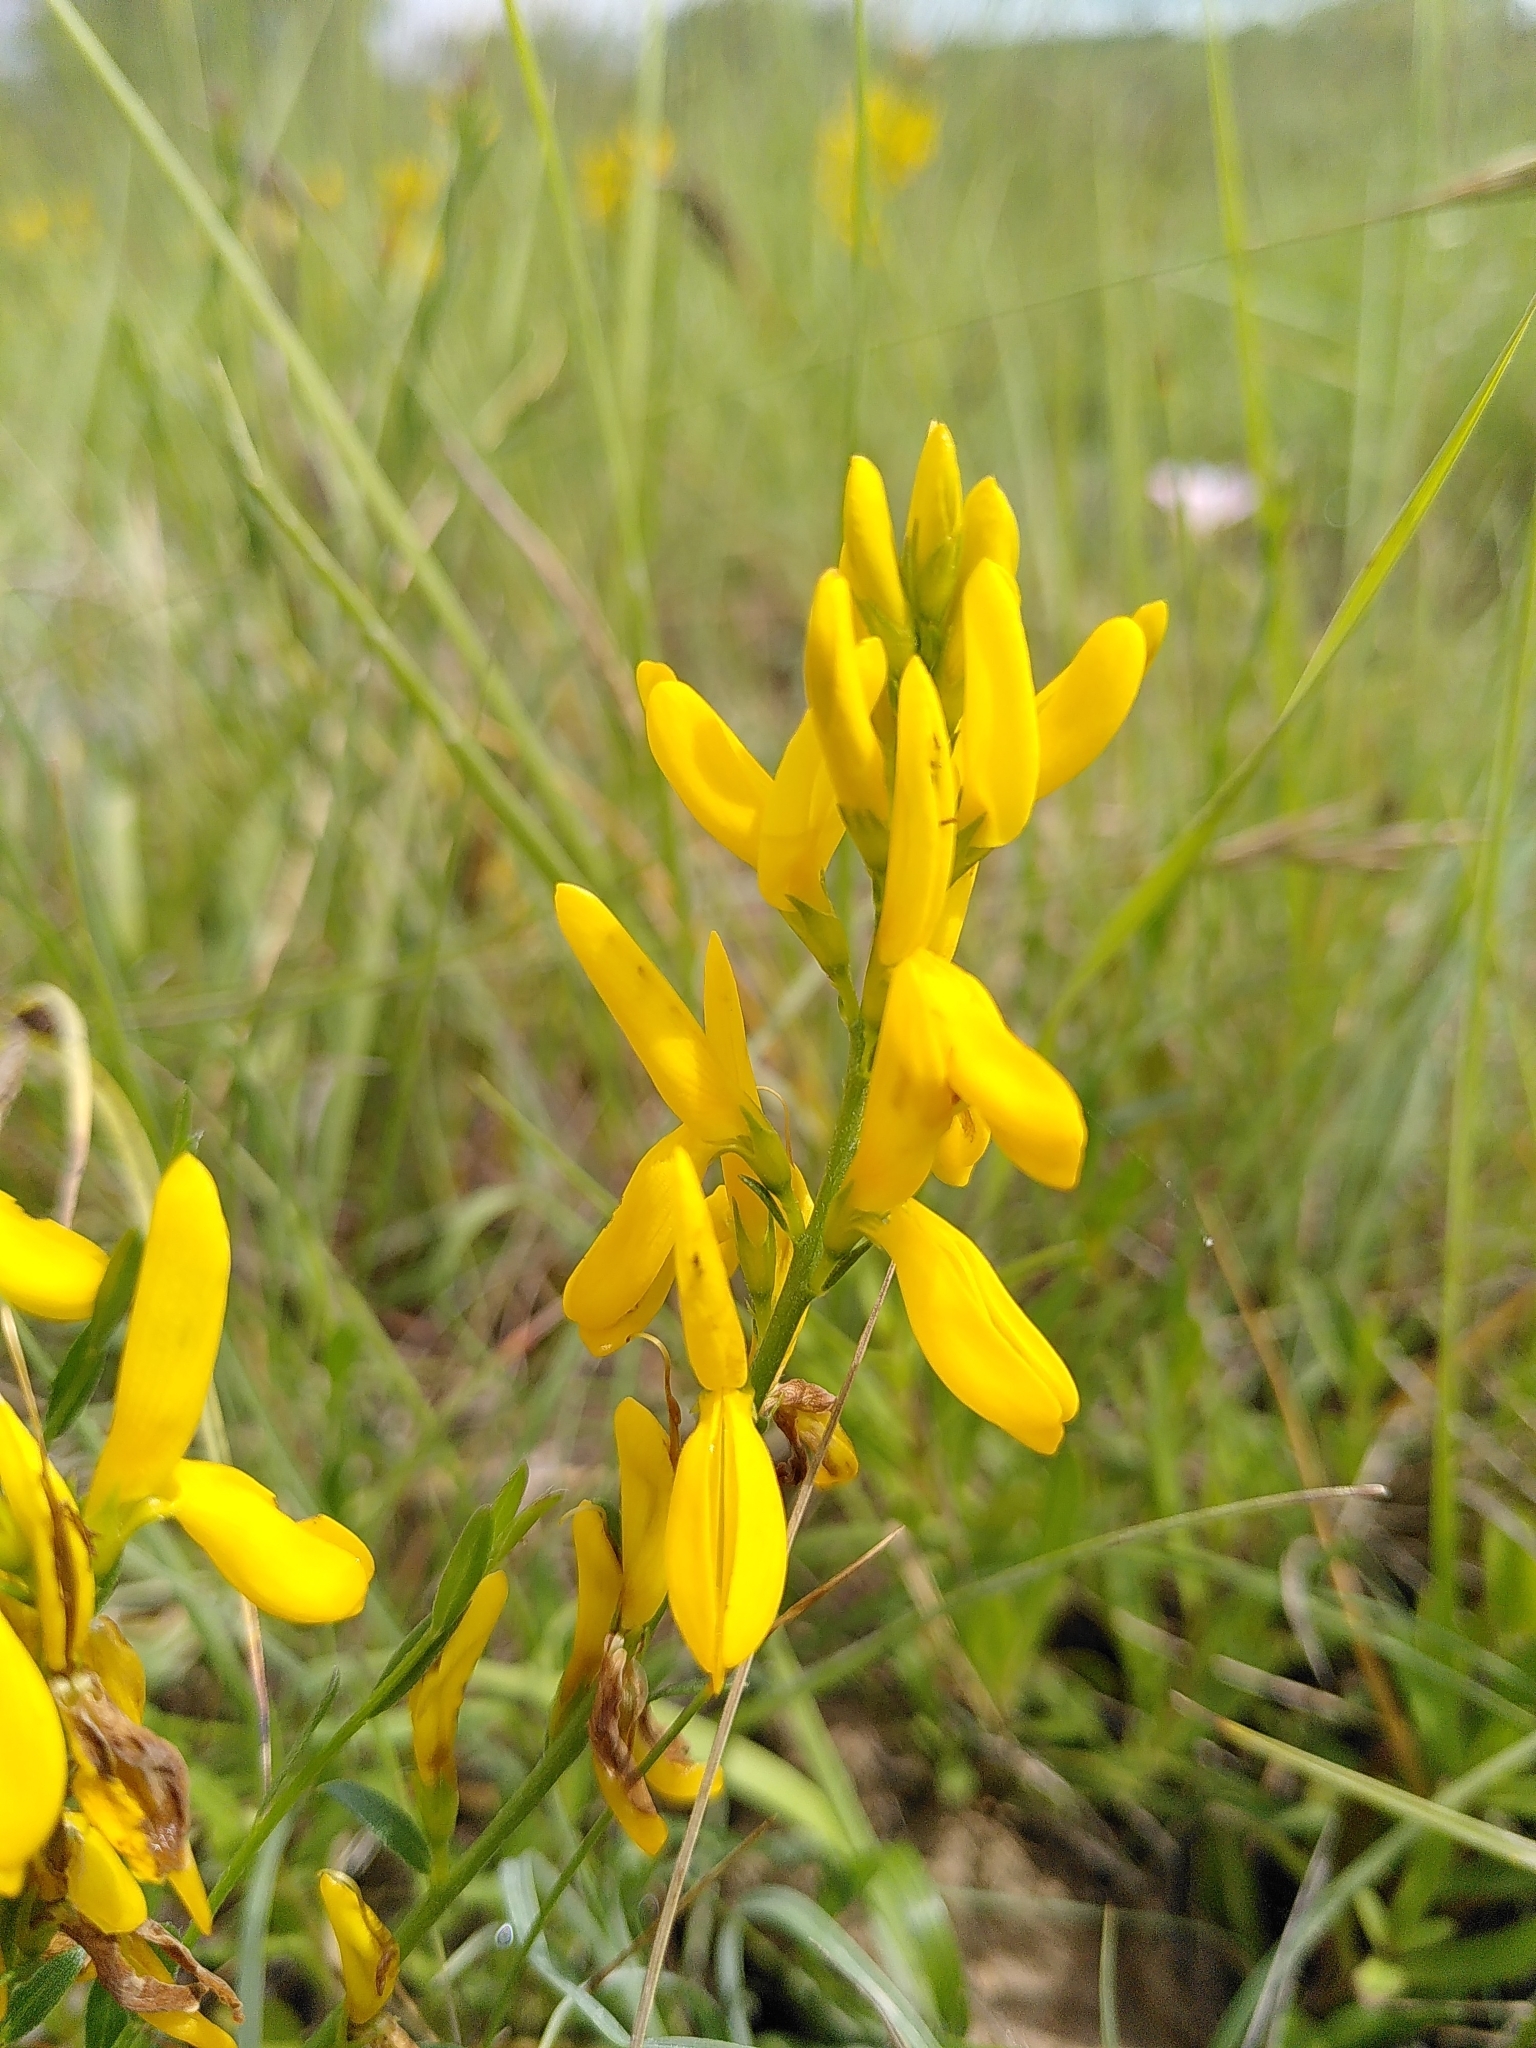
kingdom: Plantae
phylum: Tracheophyta
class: Magnoliopsida
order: Fabales
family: Fabaceae
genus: Genista
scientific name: Genista tinctoria
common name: Dyer's greenweed
